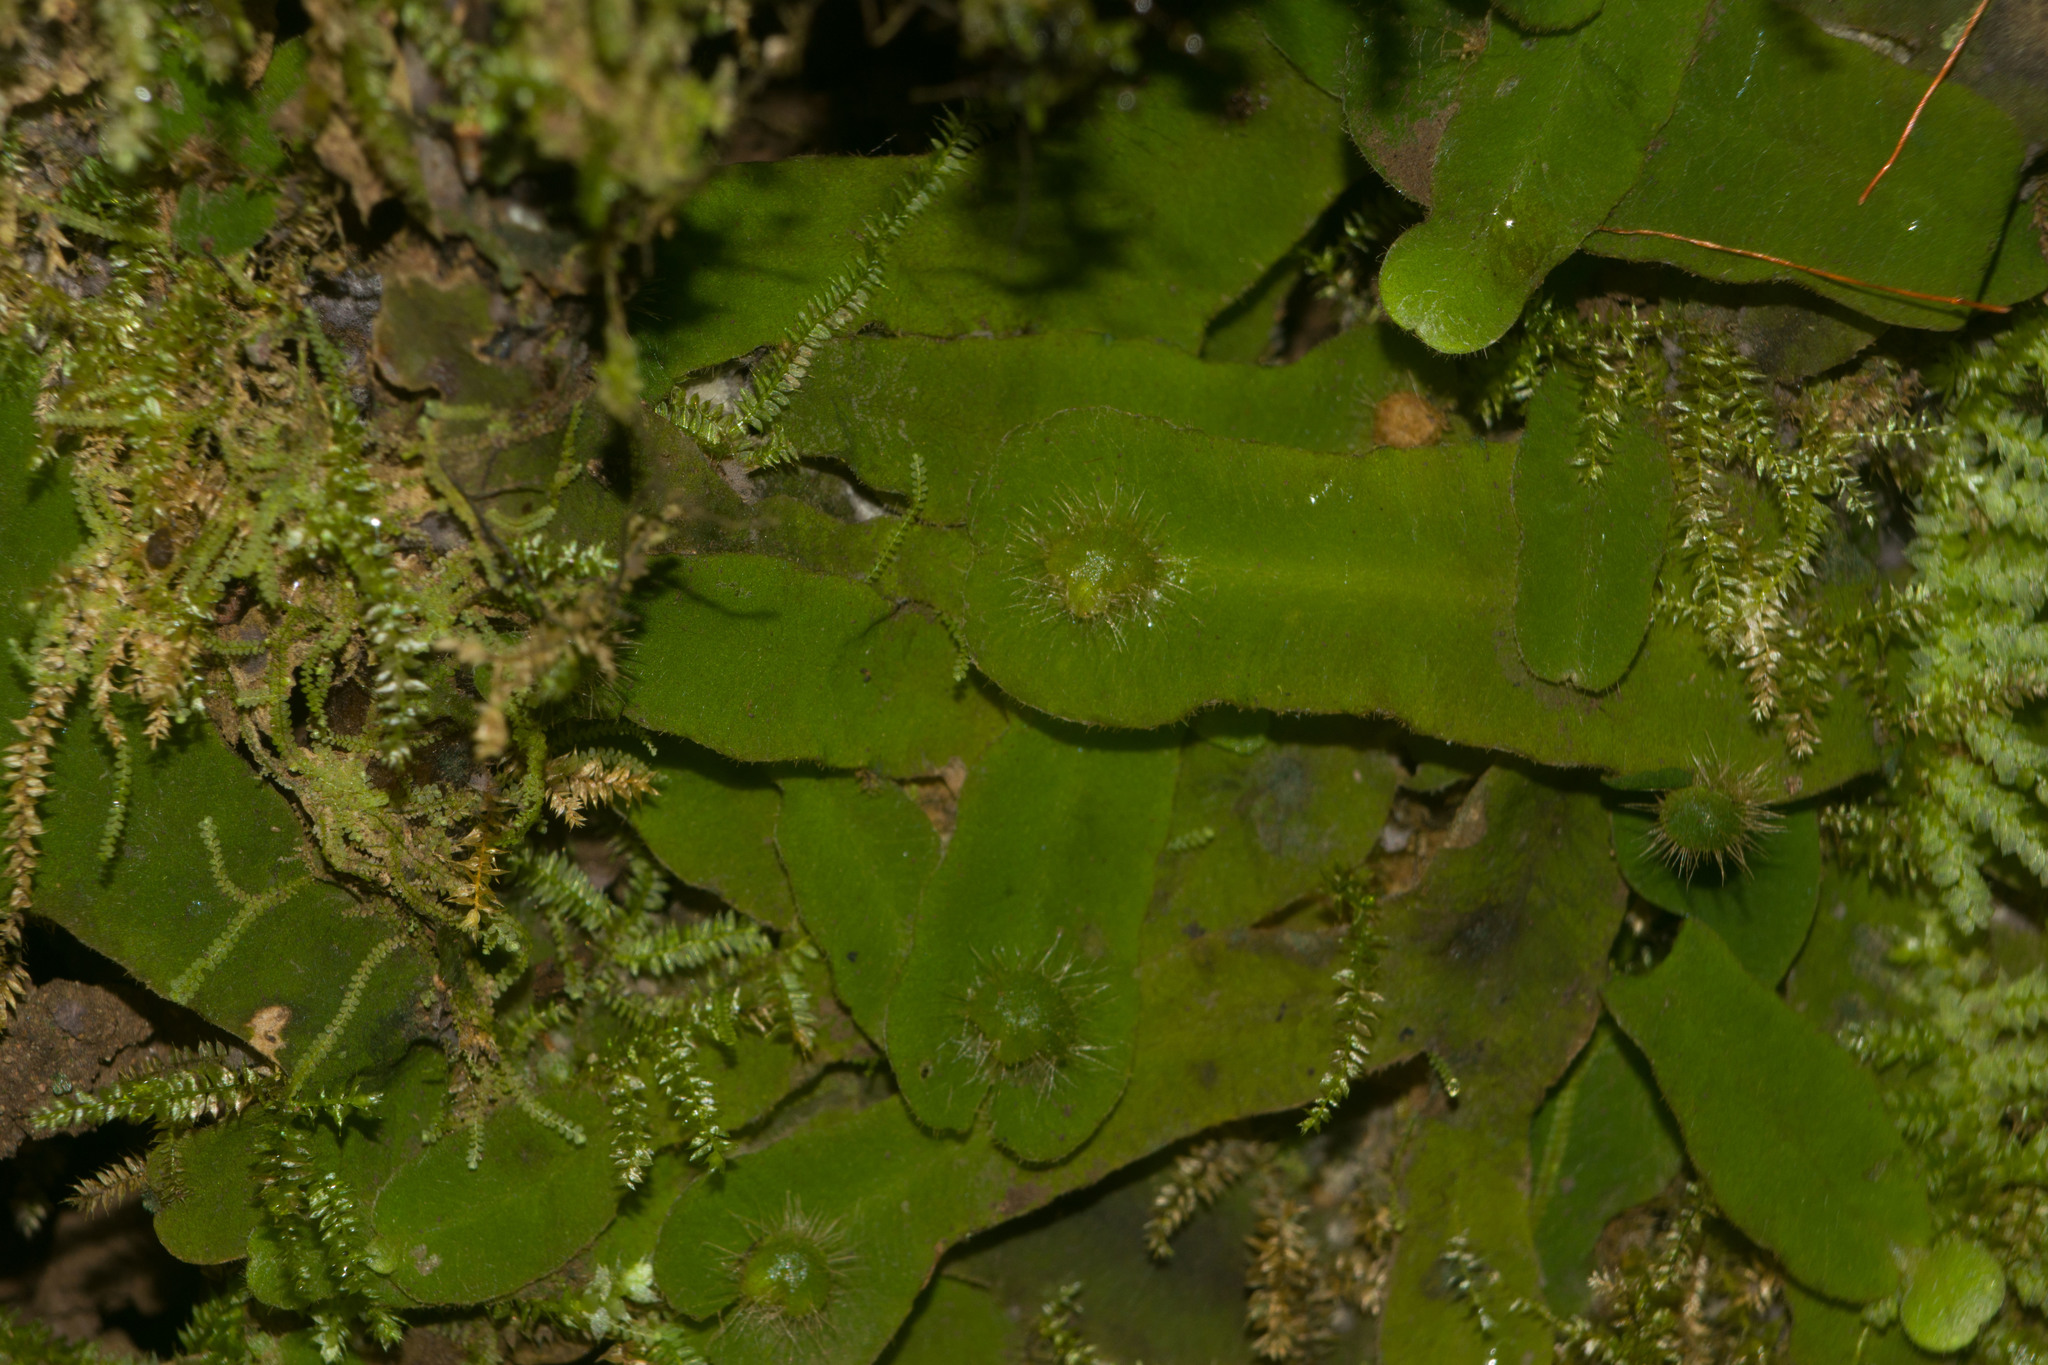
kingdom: Plantae
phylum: Marchantiophyta
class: Marchantiopsida
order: Marchantiales
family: Dumortieraceae
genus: Dumortiera
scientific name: Dumortiera hirsuta
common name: Dumortier's liverwort
